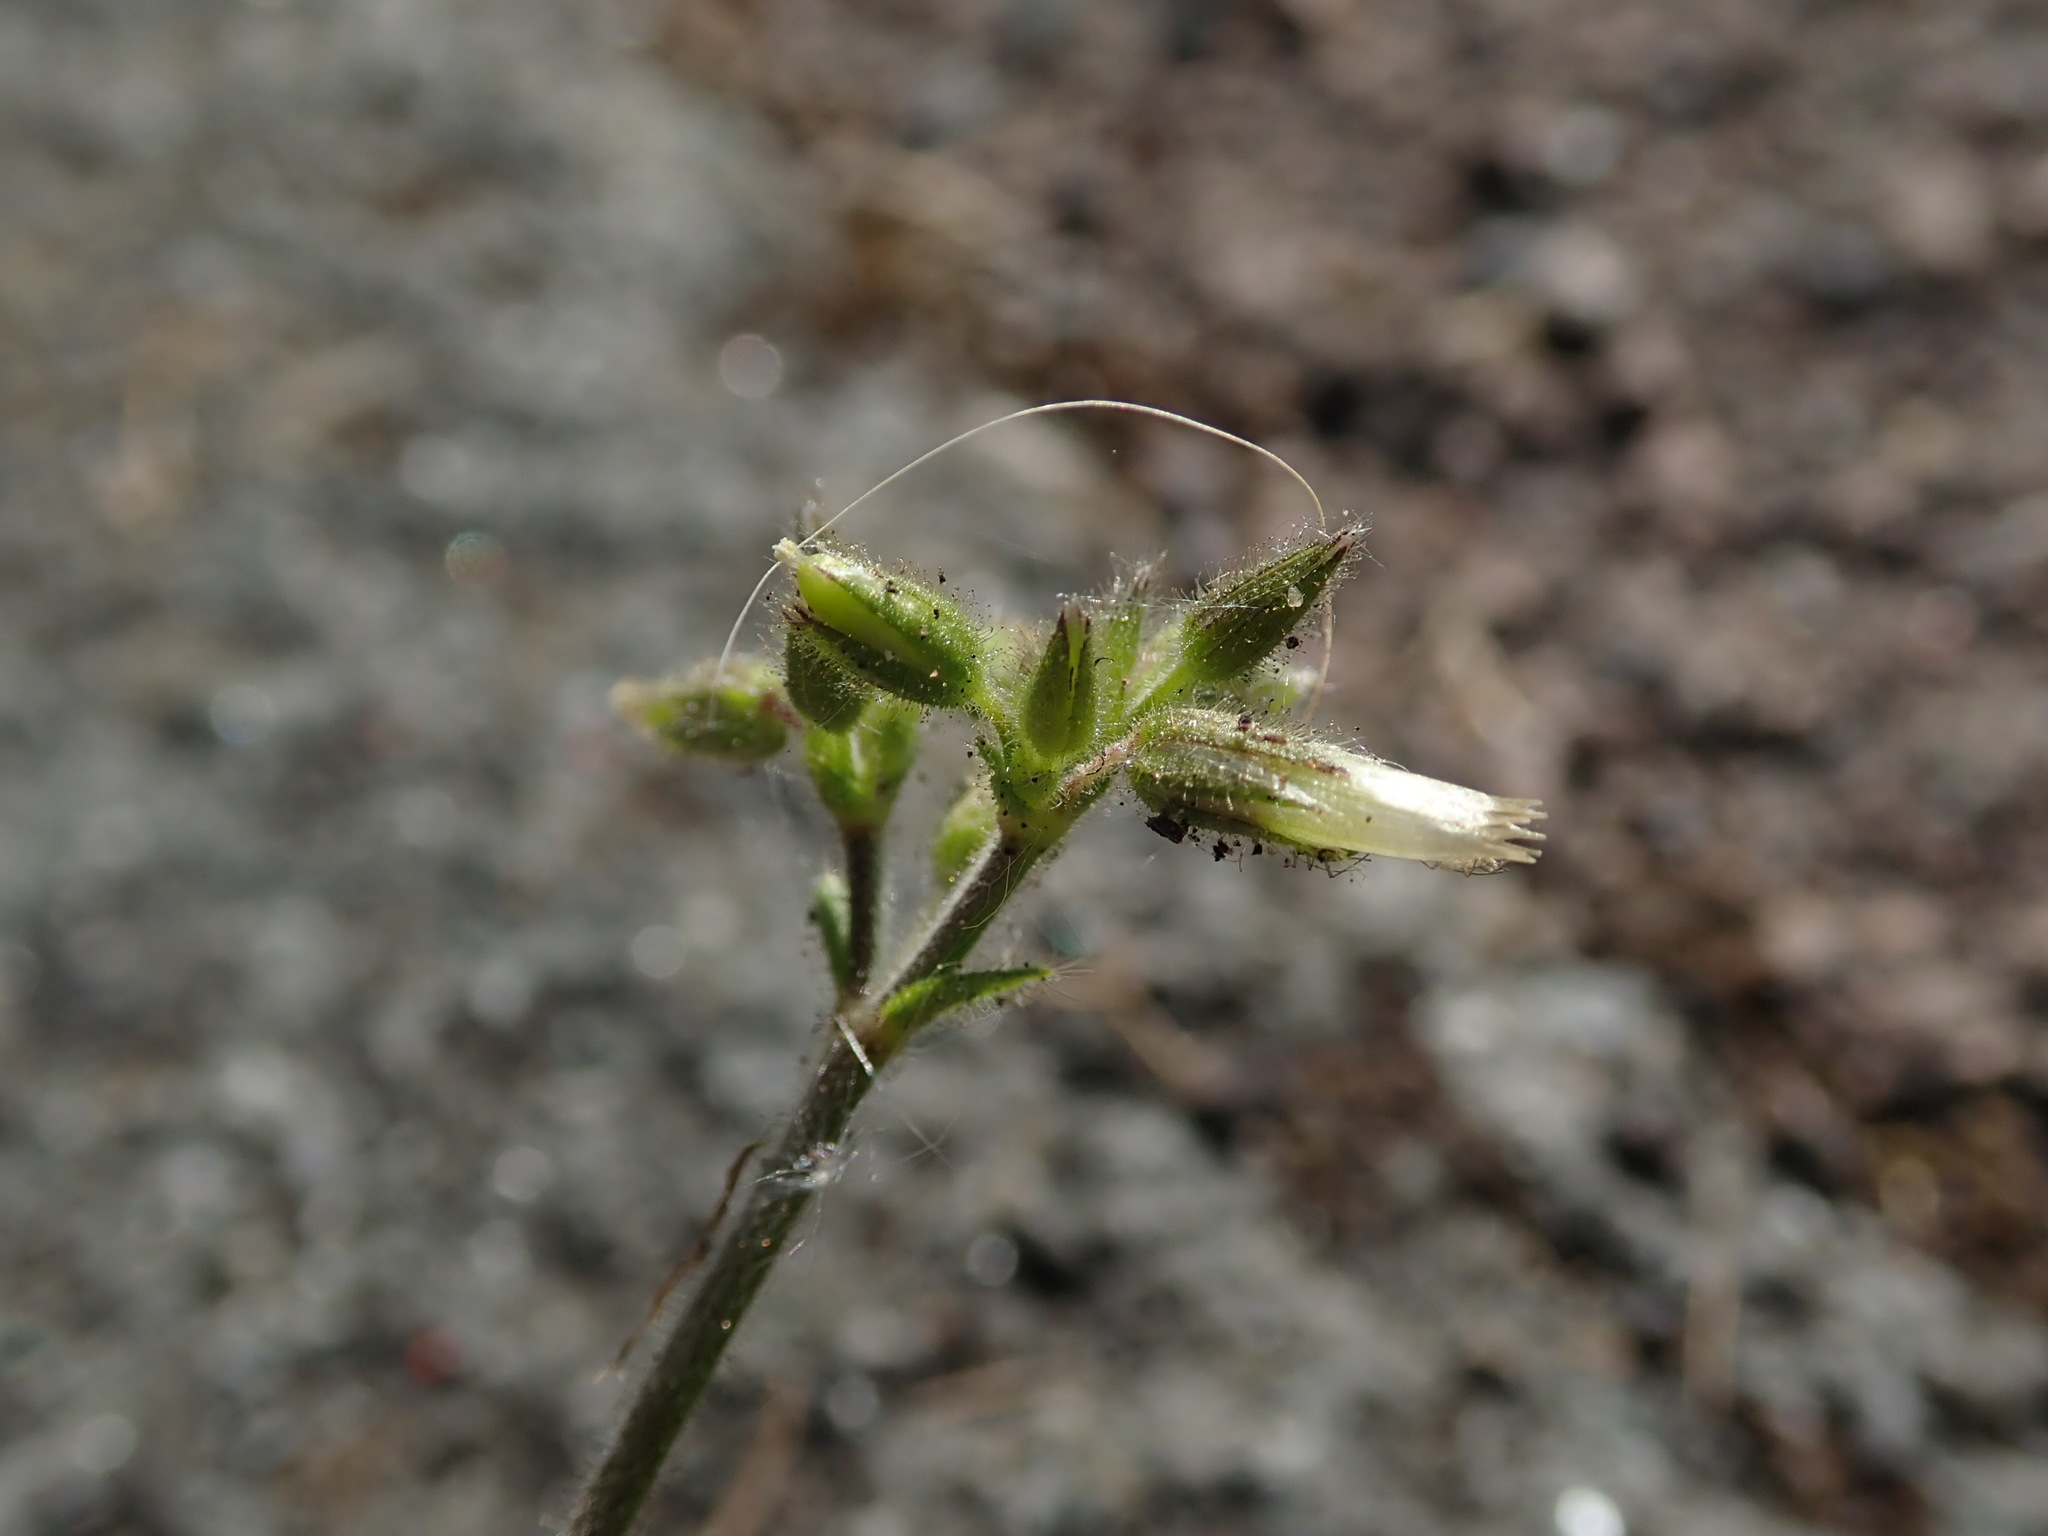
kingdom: Plantae
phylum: Tracheophyta
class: Magnoliopsida
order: Caryophyllales
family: Caryophyllaceae
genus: Cerastium
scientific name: Cerastium glomeratum
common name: Sticky chickweed
